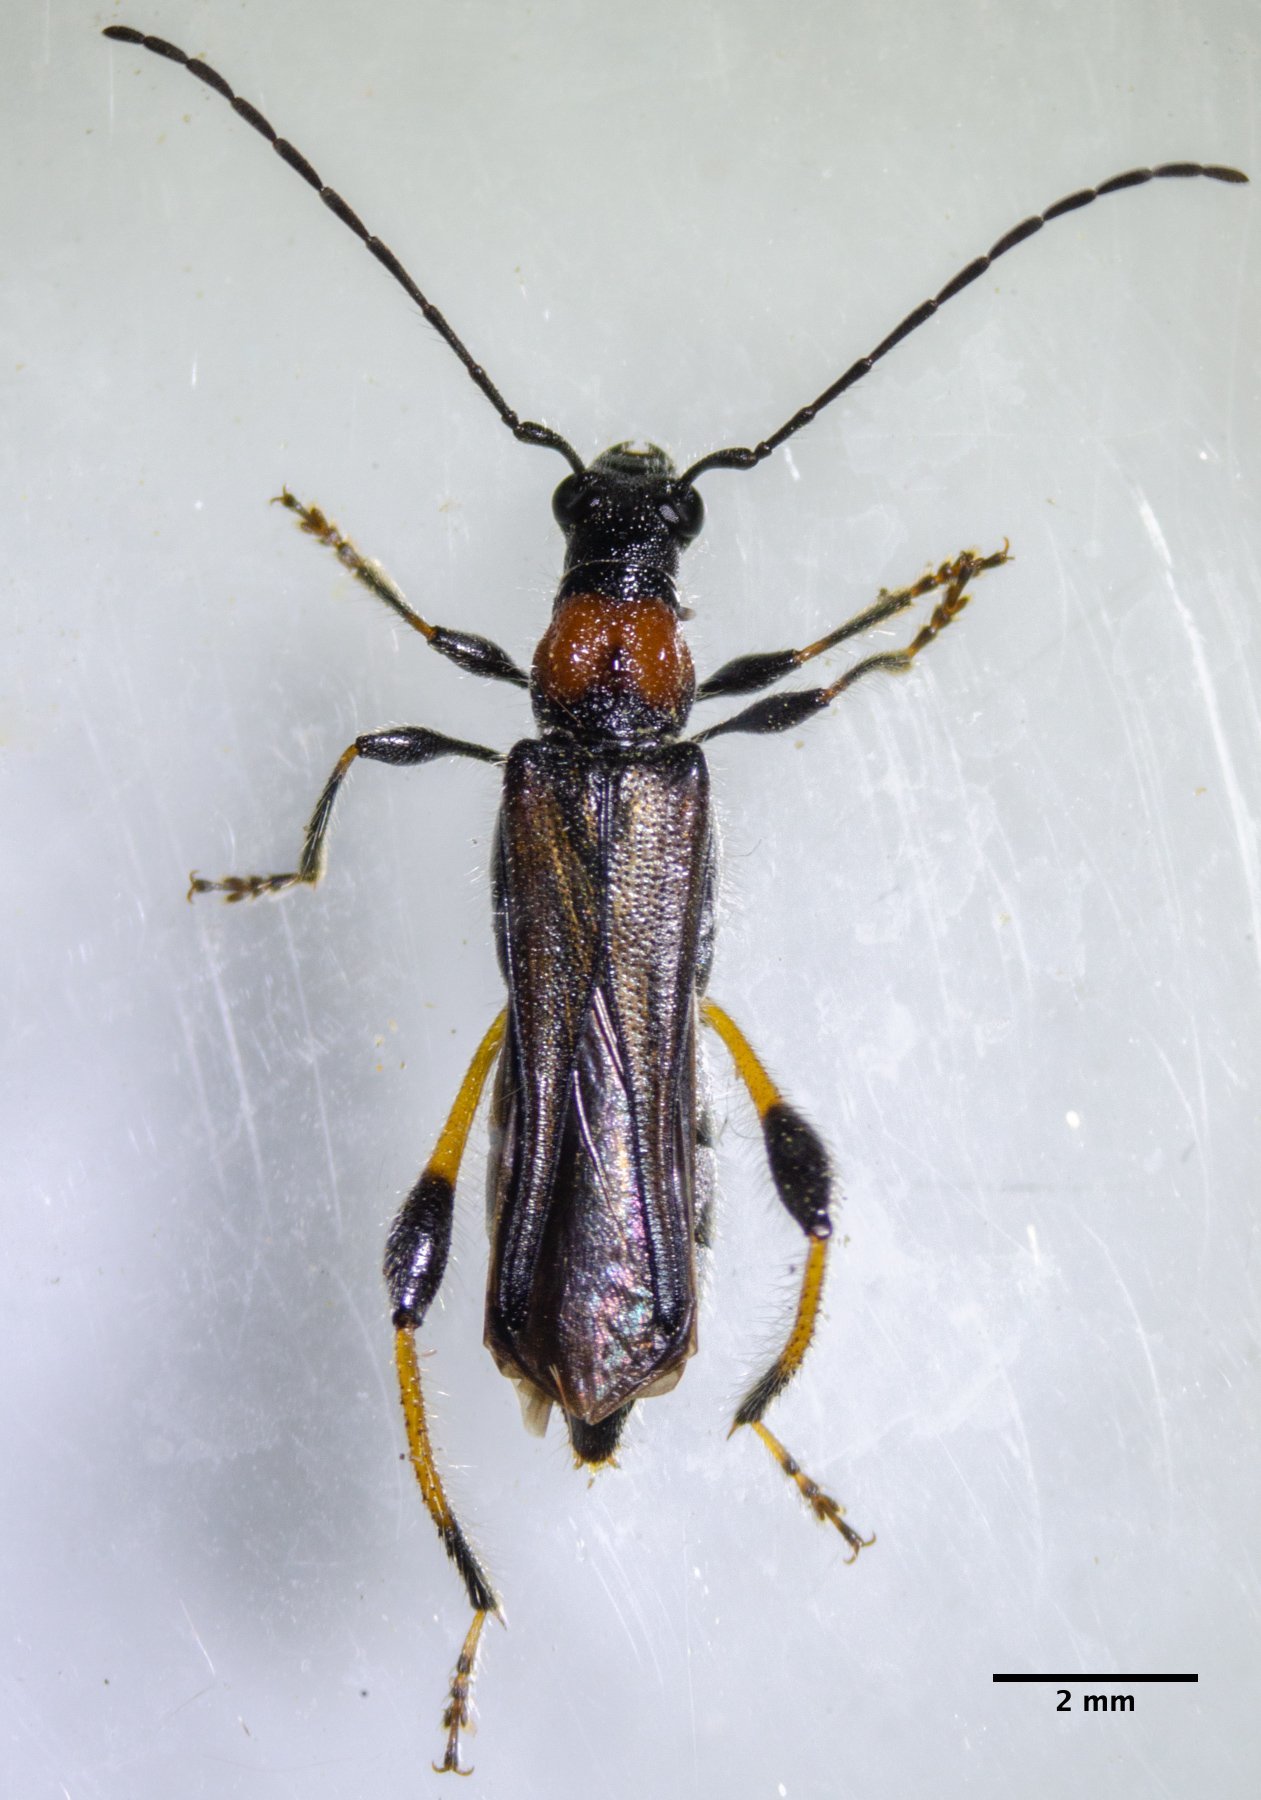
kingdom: Animalia
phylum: Arthropoda
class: Insecta
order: Coleoptera
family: Cerambycidae
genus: Callimoxys
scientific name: Callimoxys fuscipennis
